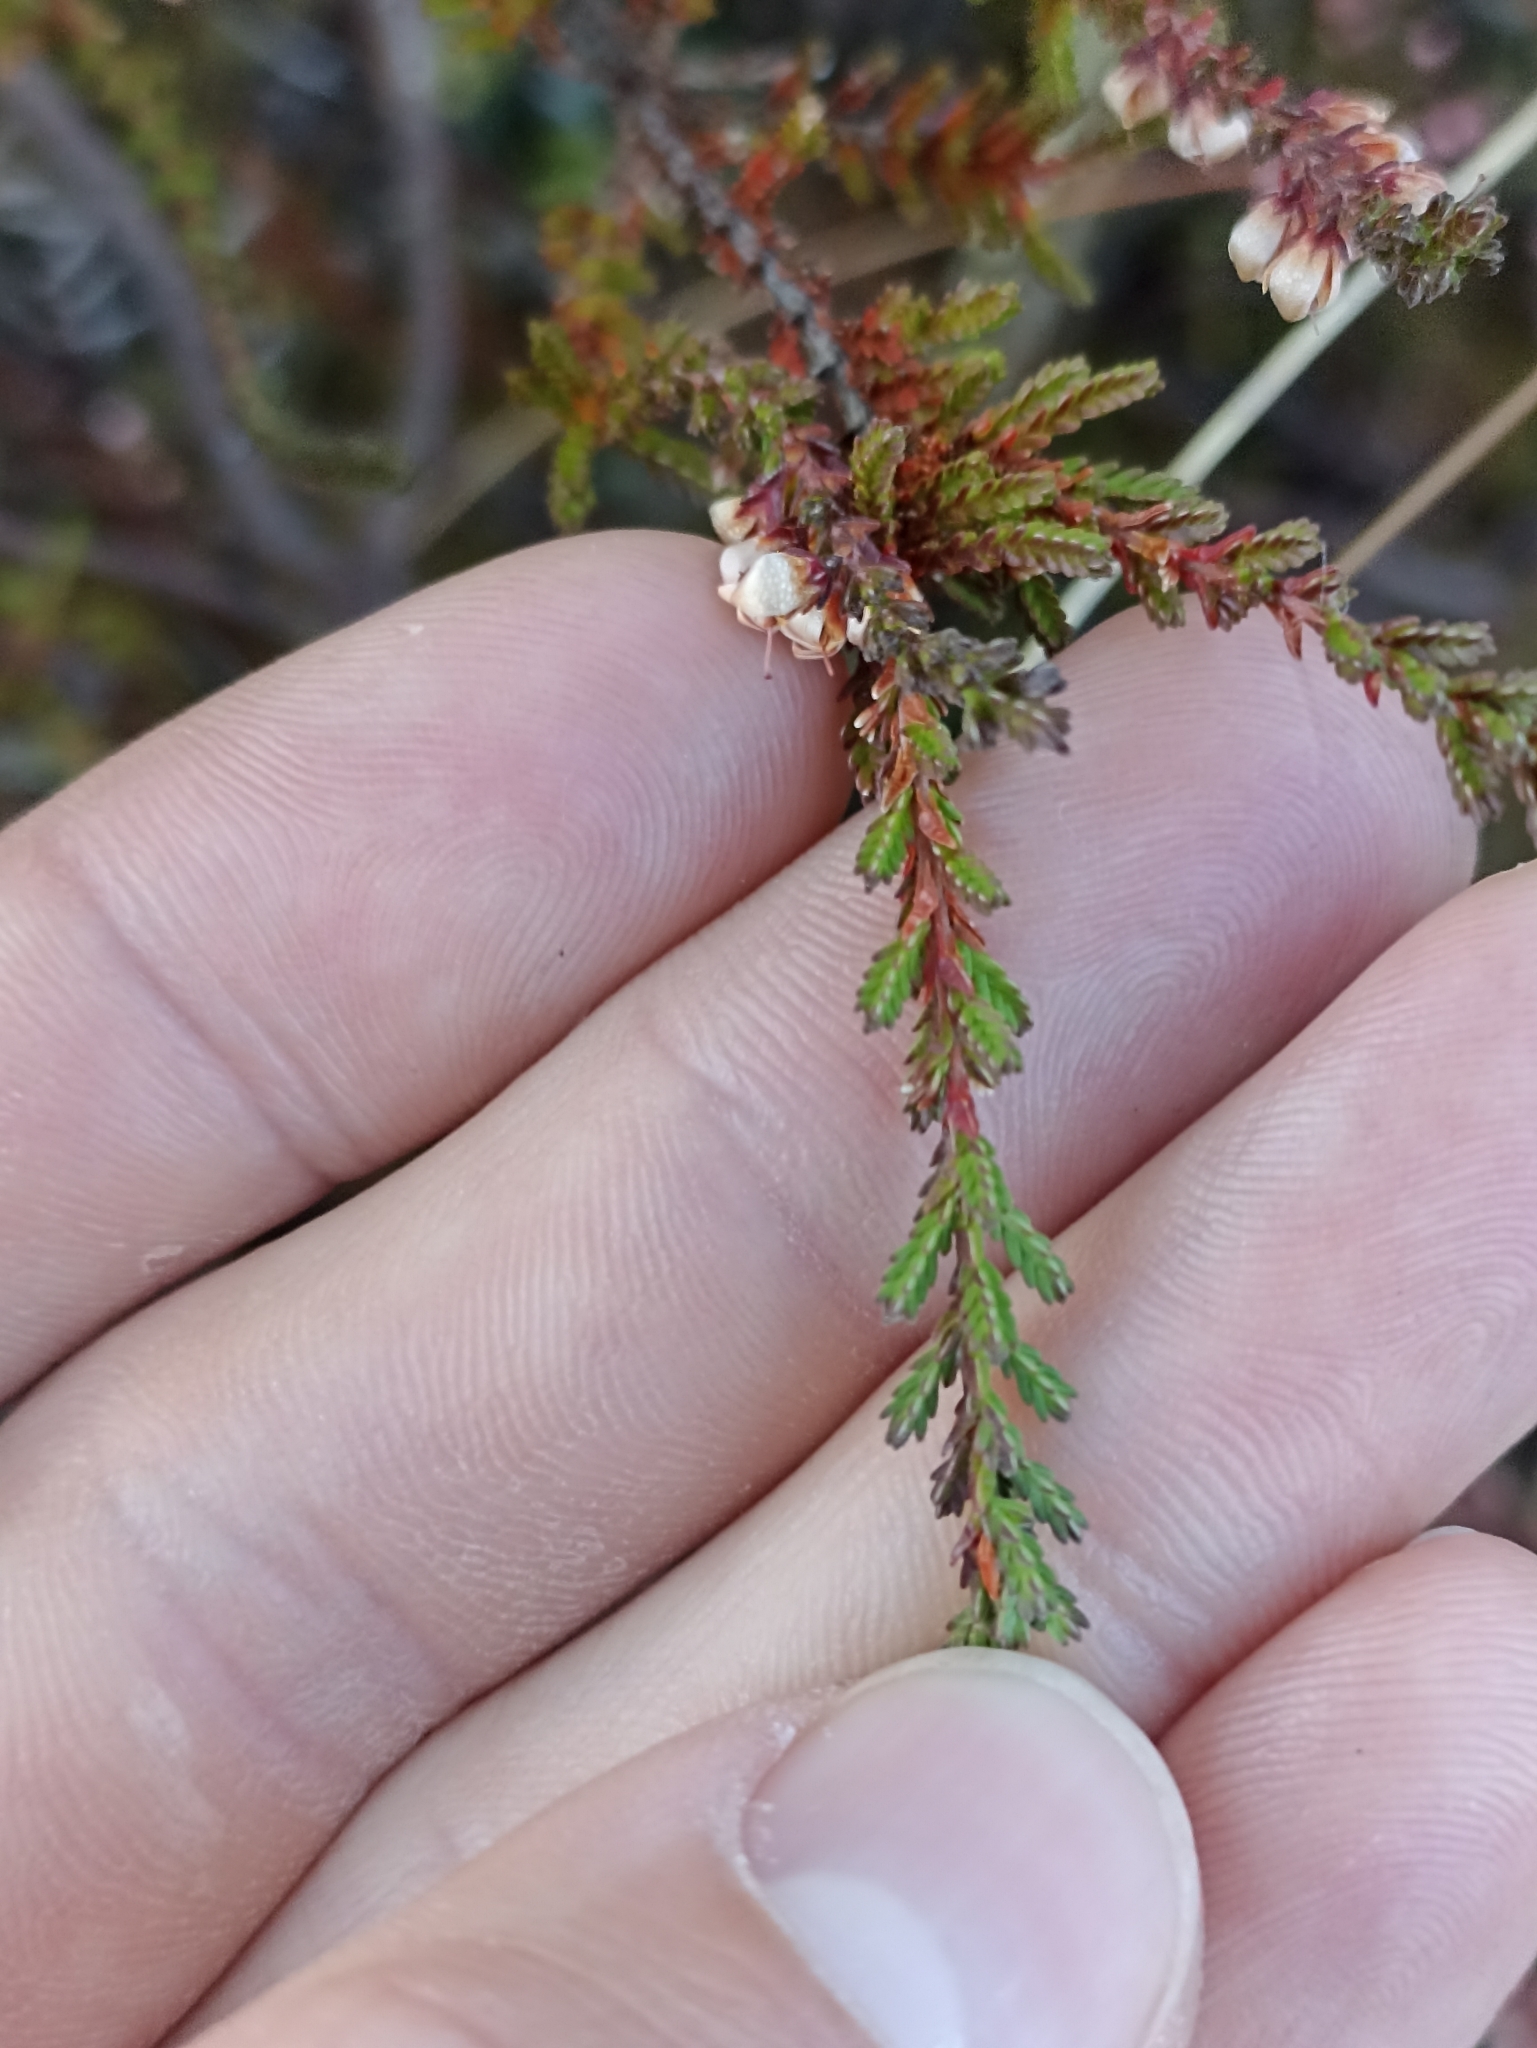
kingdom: Plantae
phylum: Tracheophyta
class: Magnoliopsida
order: Ericales
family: Ericaceae
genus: Calluna
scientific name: Calluna vulgaris
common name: Heather
